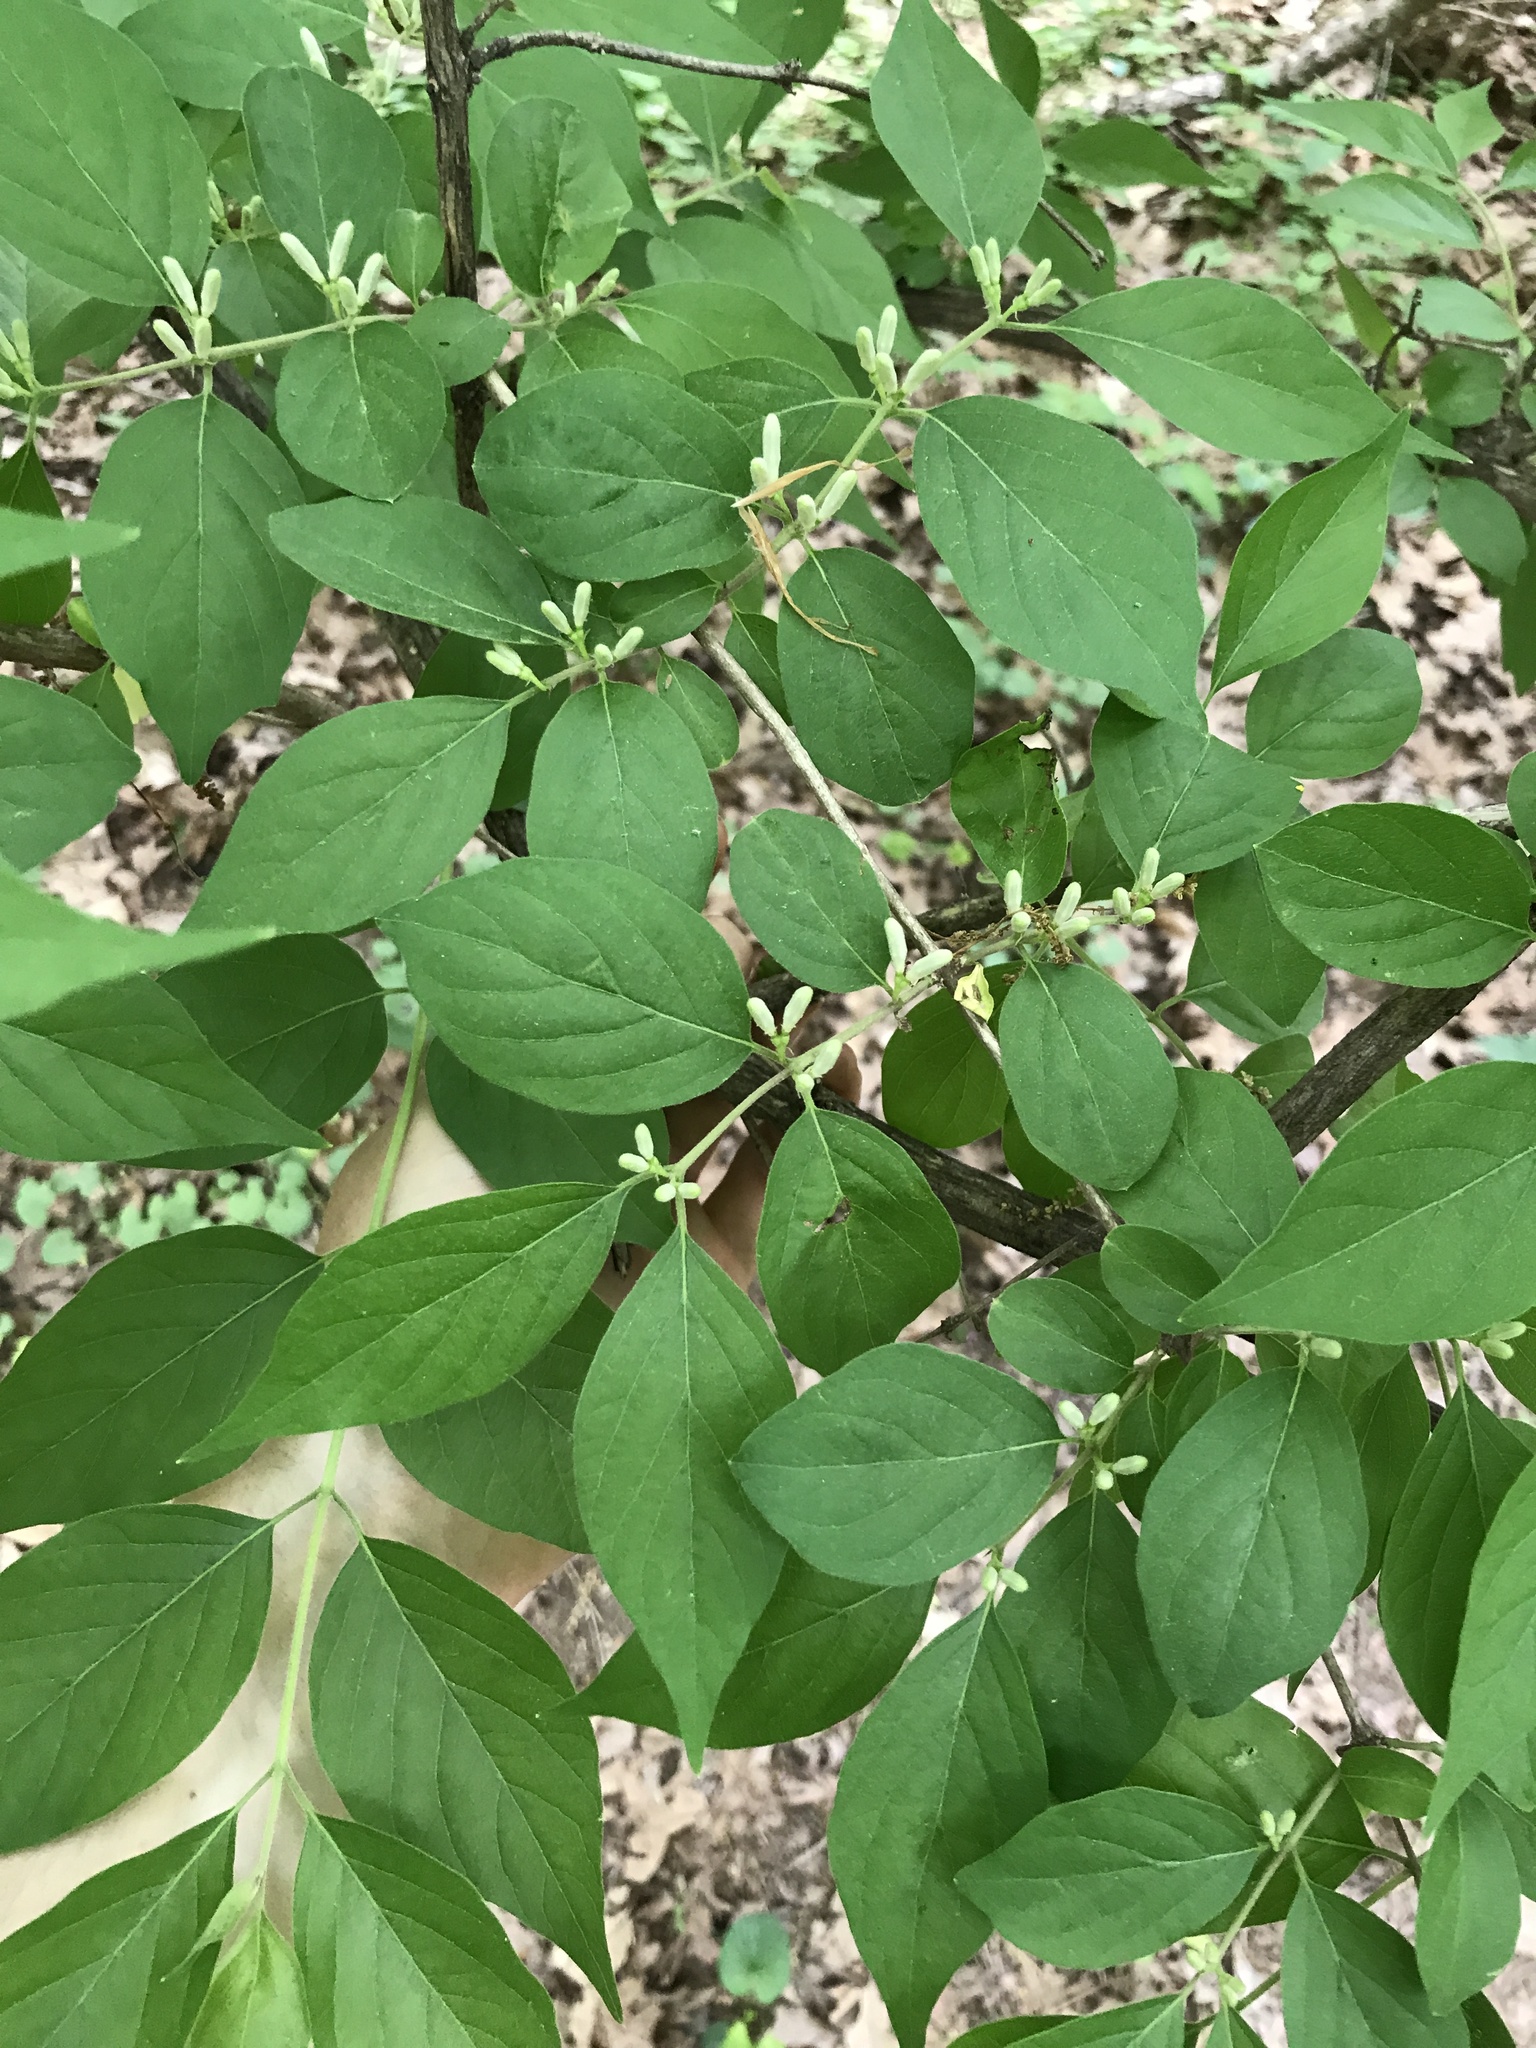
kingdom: Plantae
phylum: Tracheophyta
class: Magnoliopsida
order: Dipsacales
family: Caprifoliaceae
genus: Lonicera
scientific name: Lonicera maackii
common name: Amur honeysuckle
